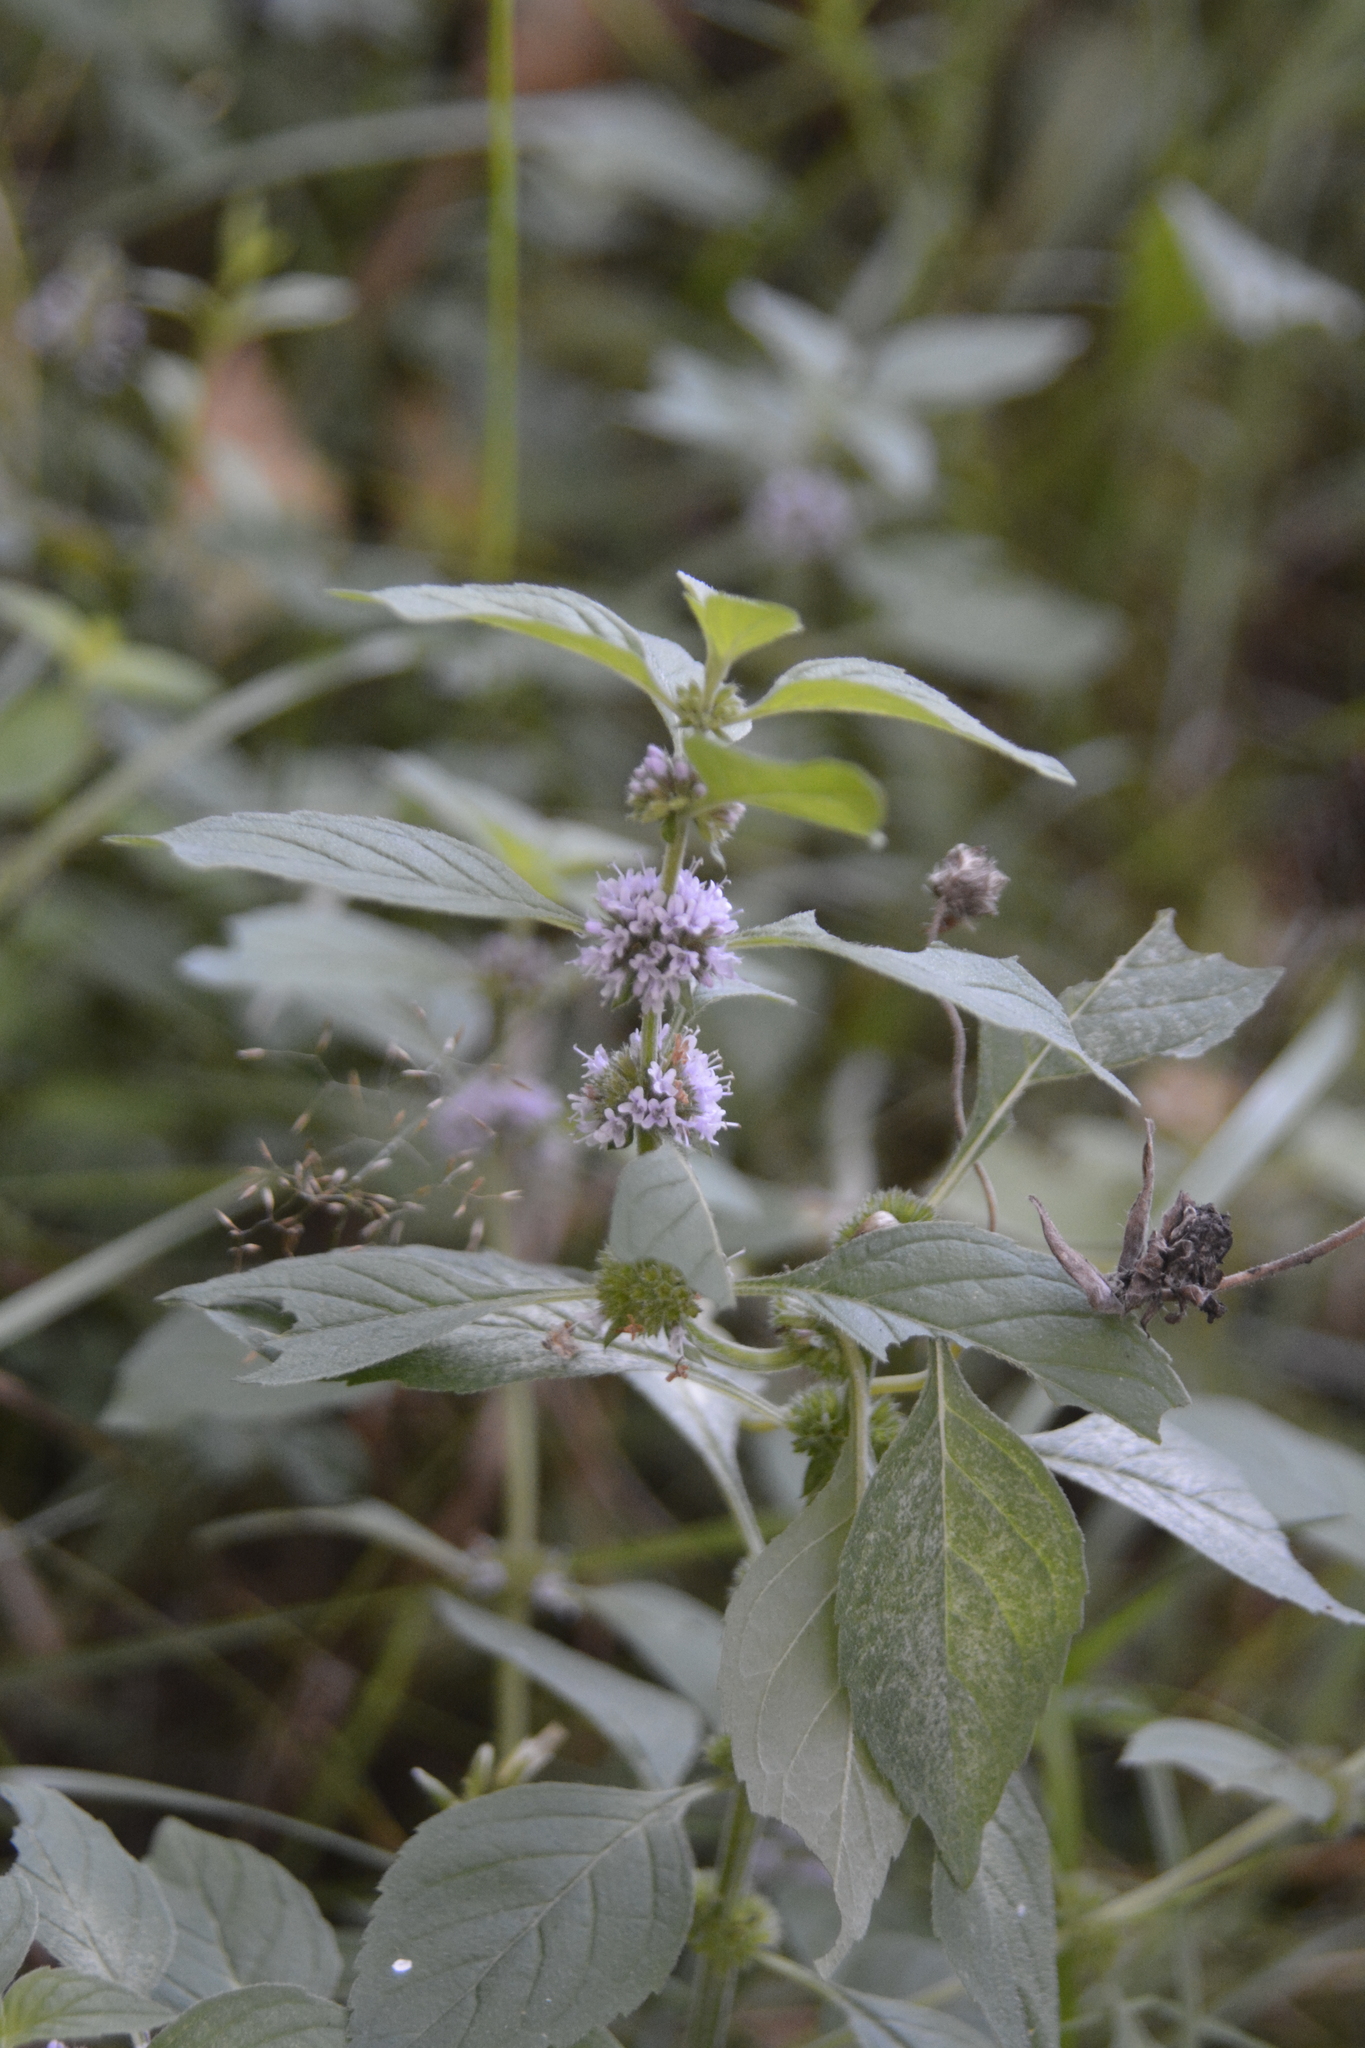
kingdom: Plantae
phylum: Tracheophyta
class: Magnoliopsida
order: Lamiales
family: Lamiaceae
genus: Mentha
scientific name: Mentha arvensis
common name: Corn mint
